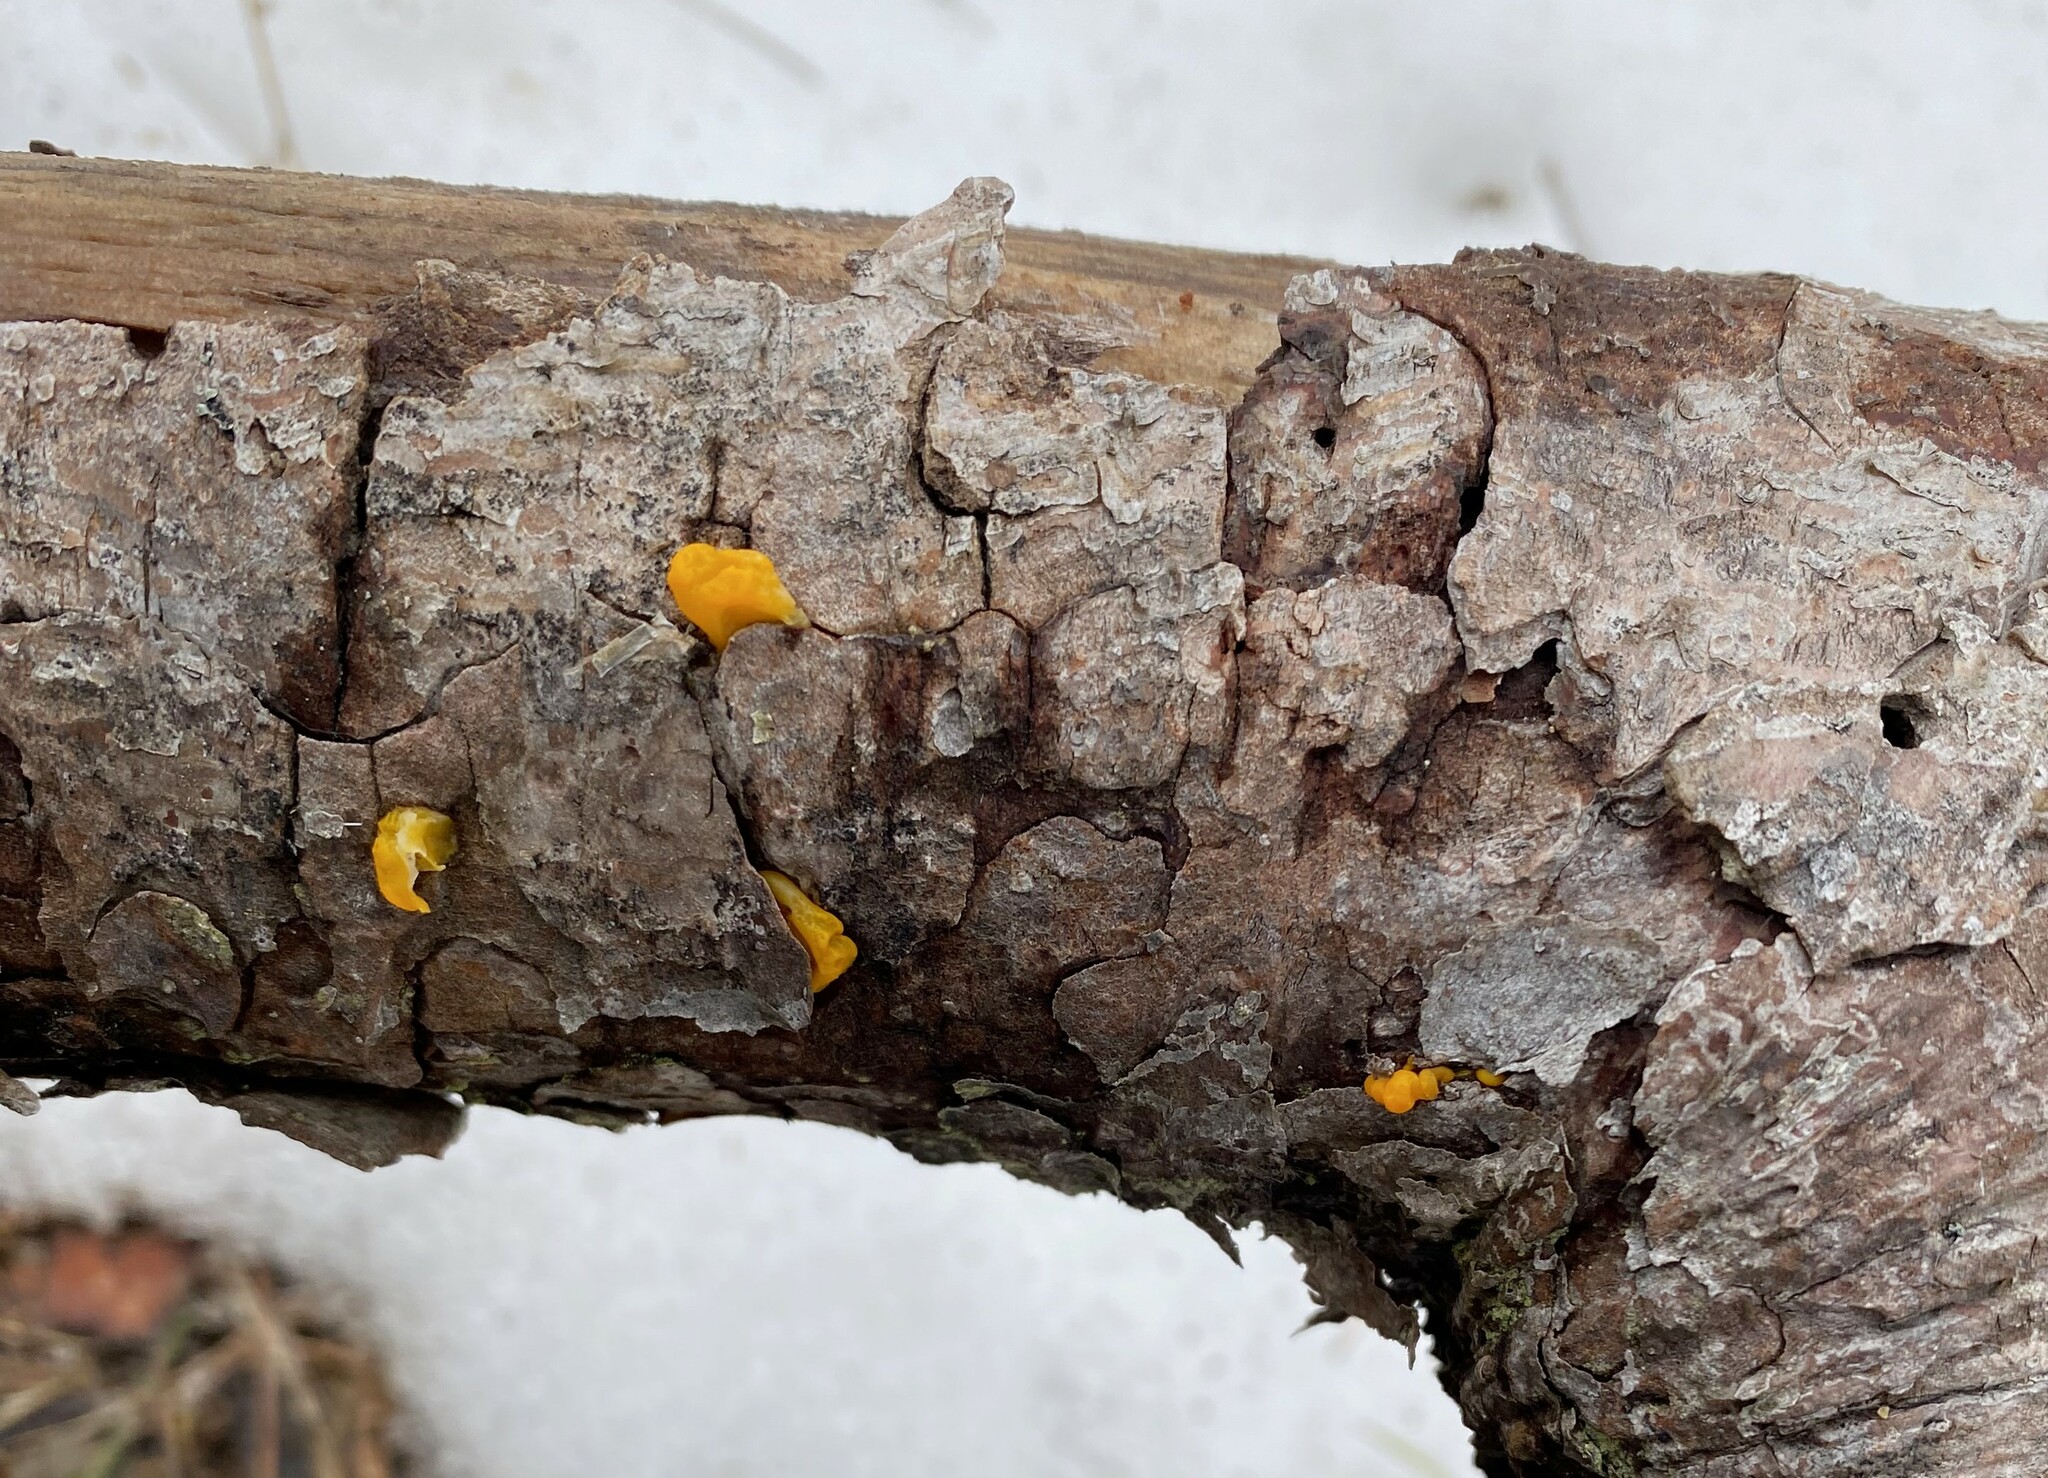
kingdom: Fungi
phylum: Basidiomycota
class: Dacrymycetes
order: Dacrymycetales
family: Dacrymycetaceae
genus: Dacrymyces
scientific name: Dacrymyces chrysospermus
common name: Orange jelly spot
